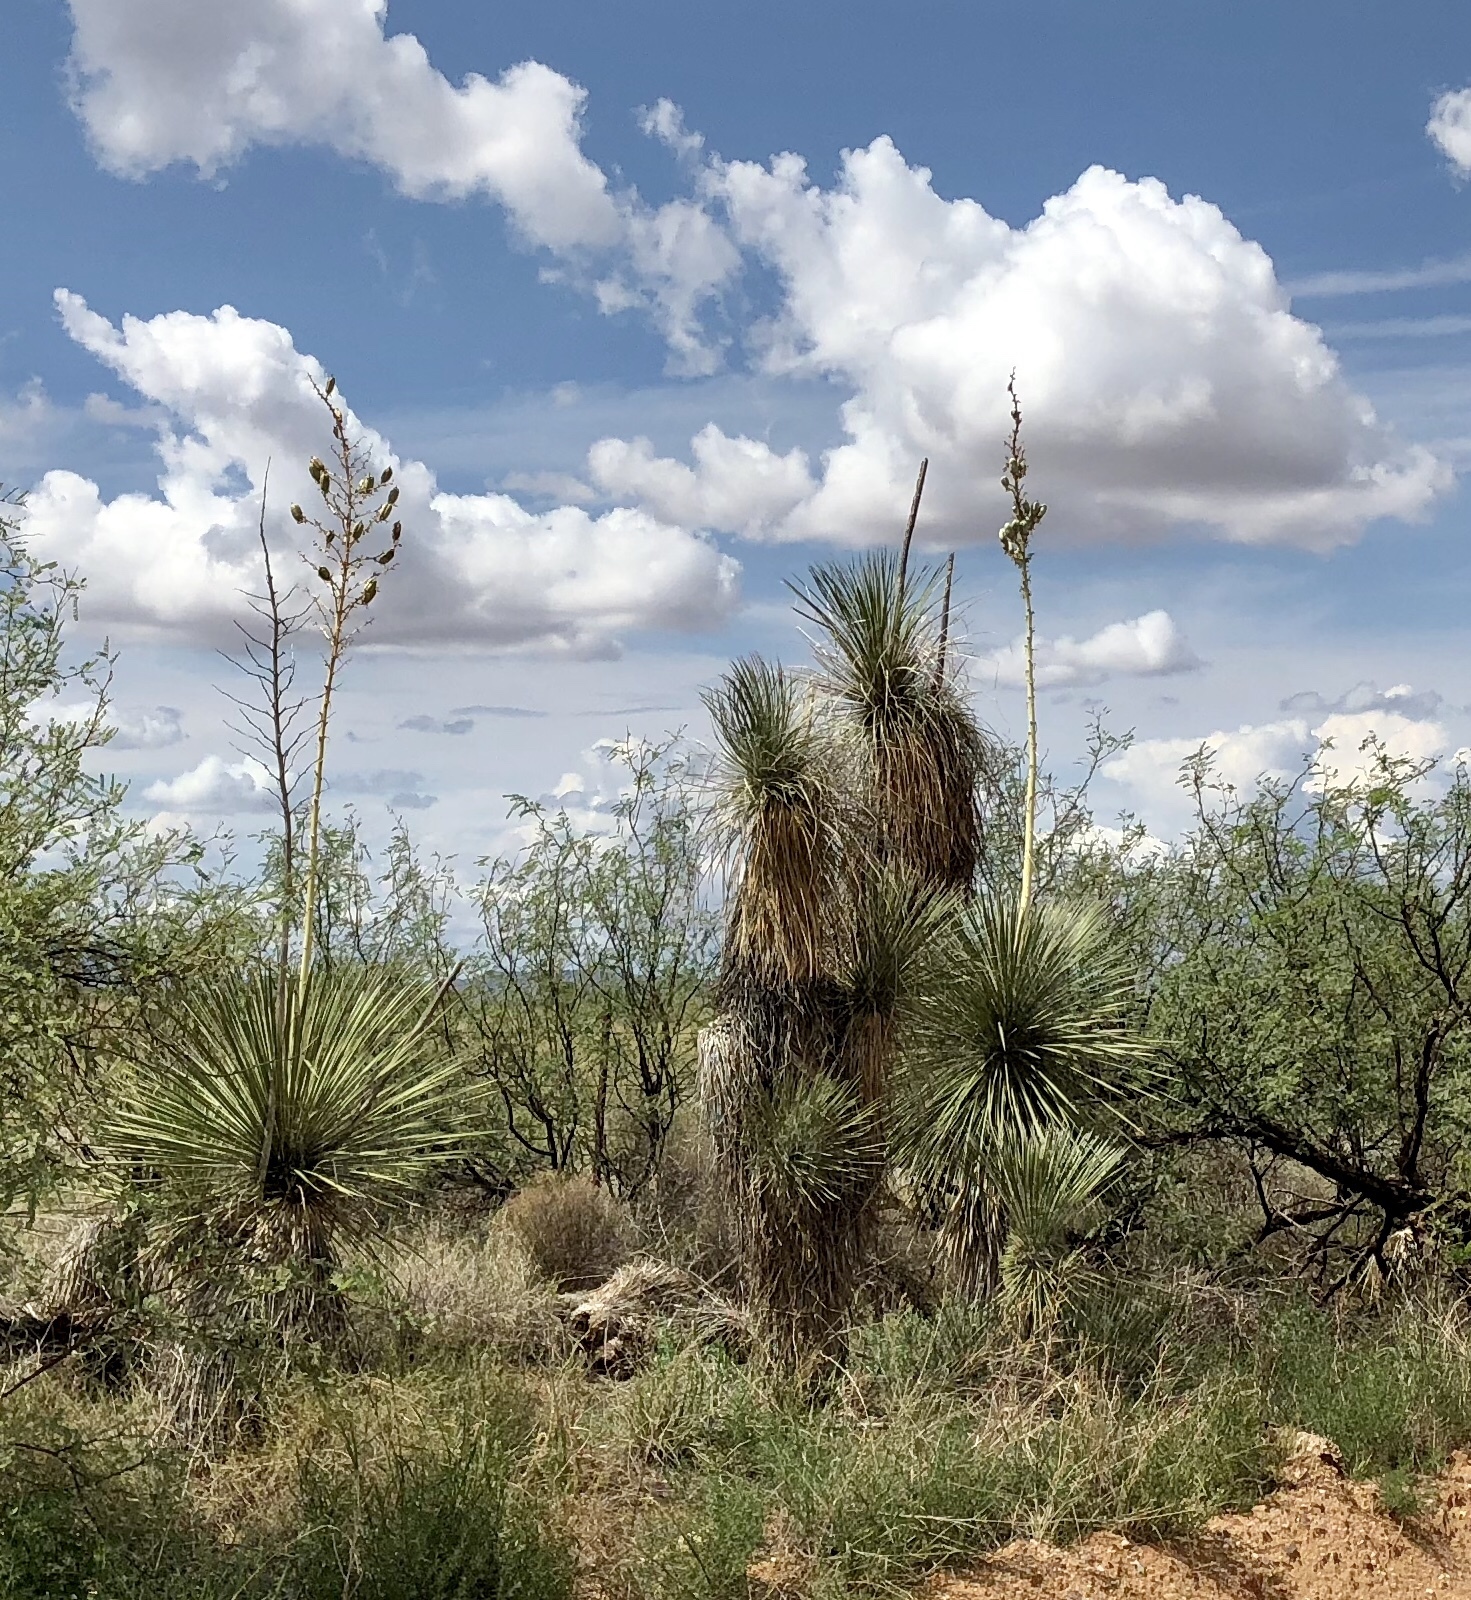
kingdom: Plantae
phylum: Tracheophyta
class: Liliopsida
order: Asparagales
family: Asparagaceae
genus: Yucca
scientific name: Yucca elata
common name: Palmella
